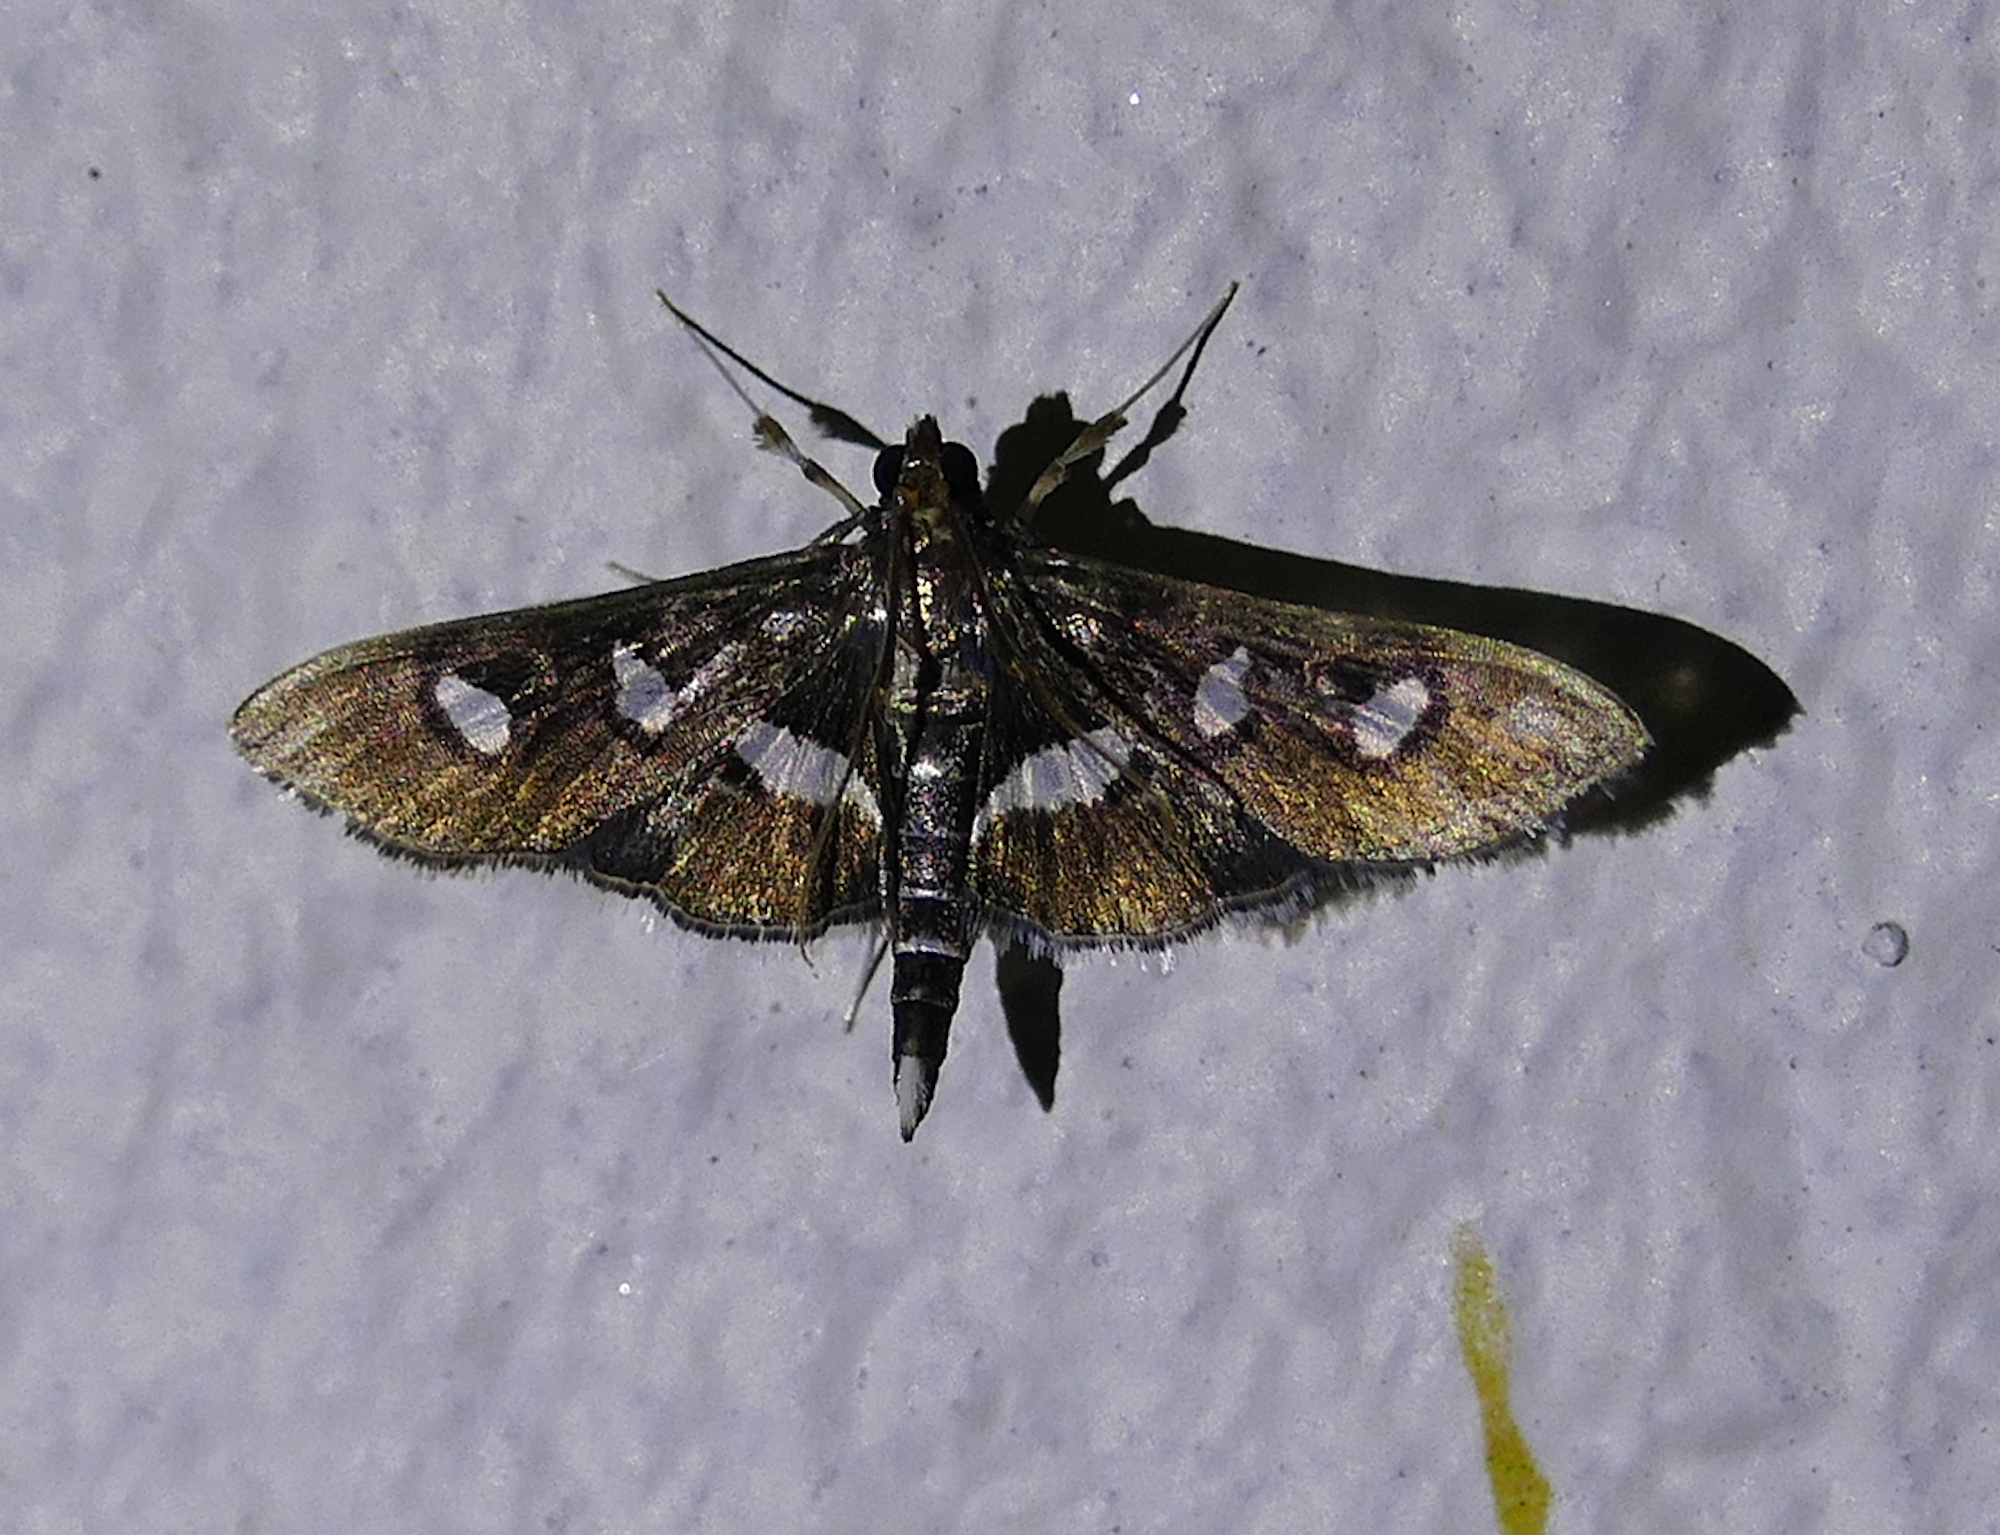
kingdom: Animalia
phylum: Arthropoda
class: Insecta
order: Lepidoptera
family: Crambidae
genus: Desmia
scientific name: Desmia
